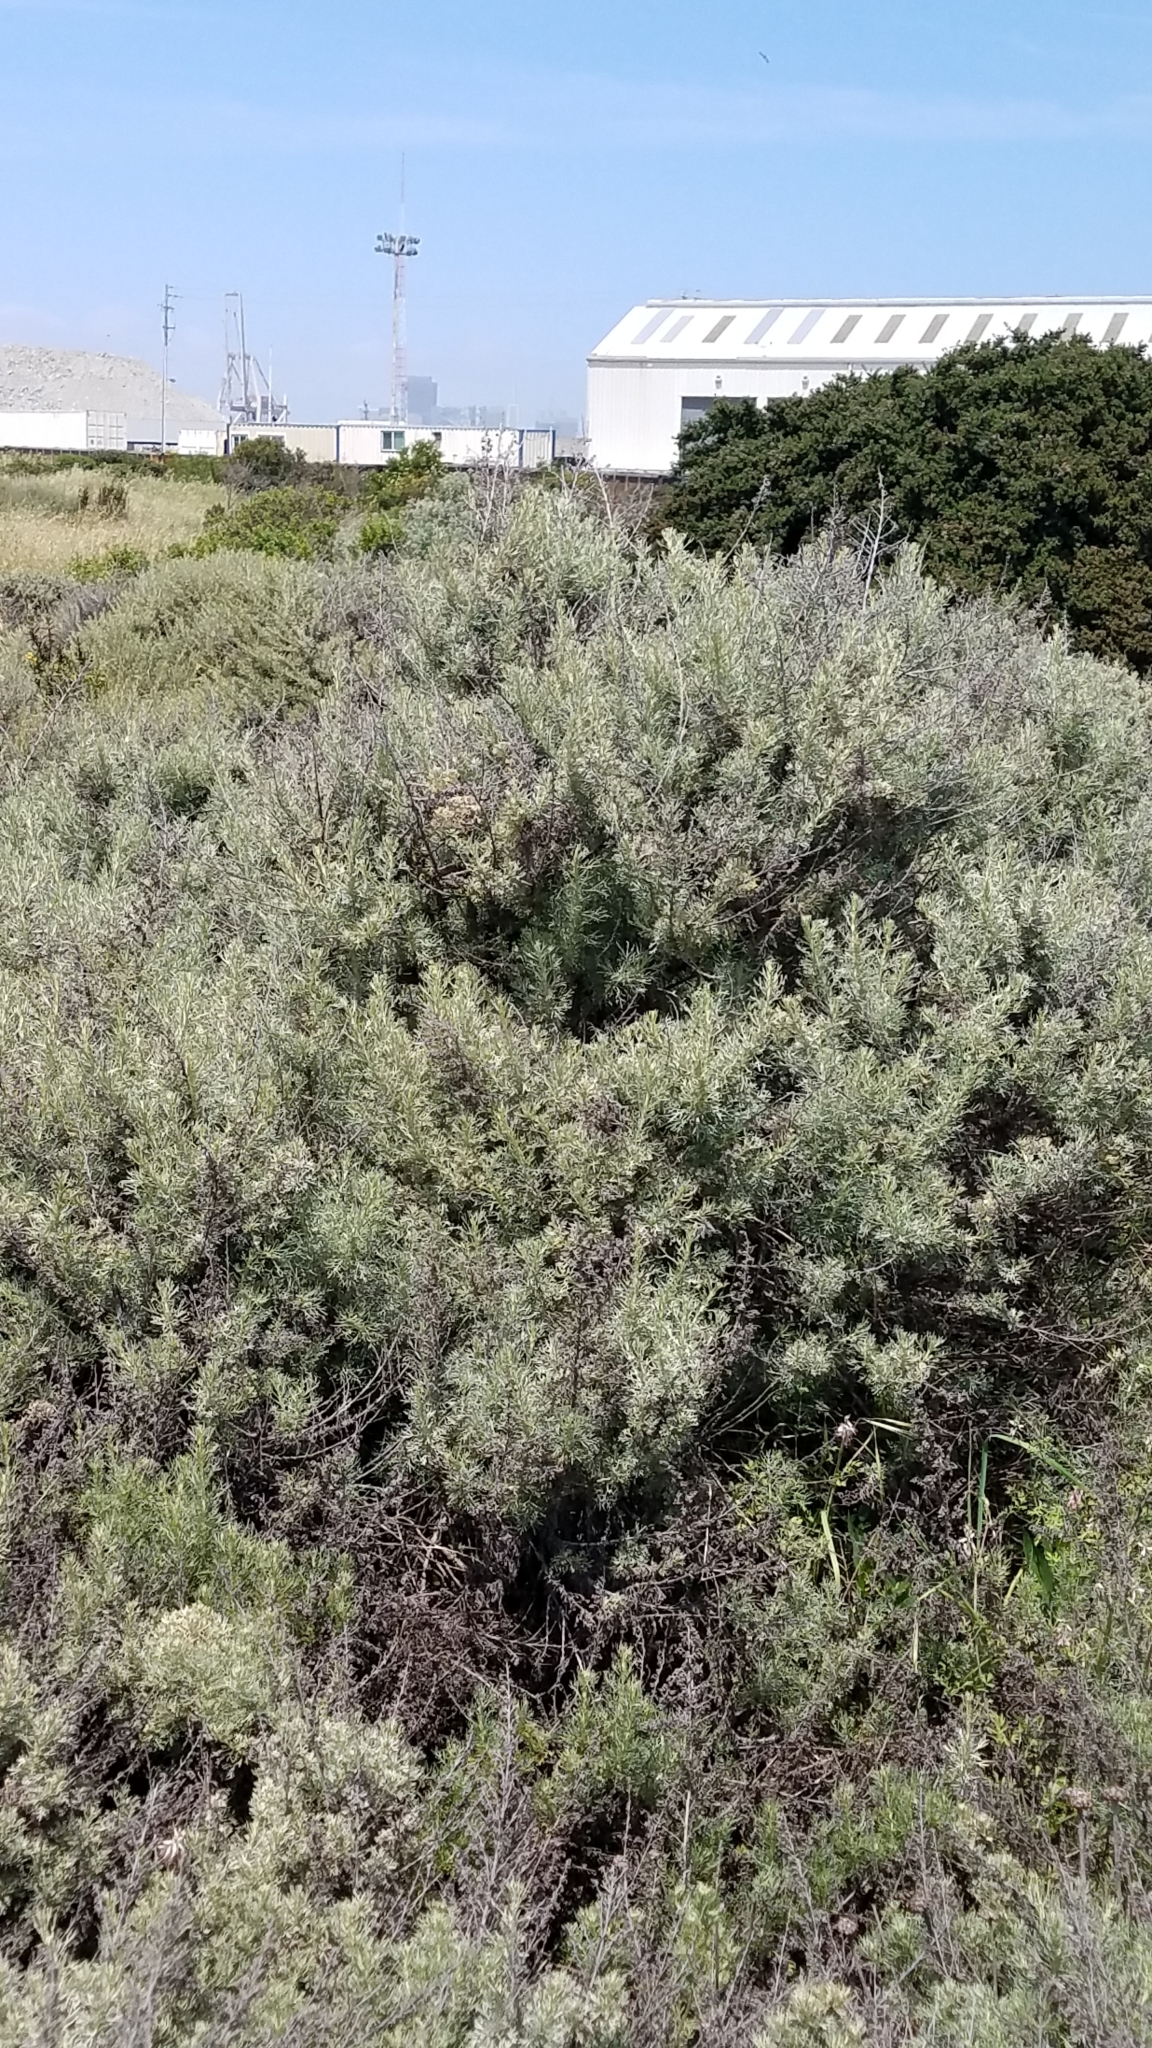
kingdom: Plantae
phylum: Tracheophyta
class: Magnoliopsida
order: Asterales
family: Asteraceae
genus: Artemisia
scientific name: Artemisia californica
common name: California sagebrush
